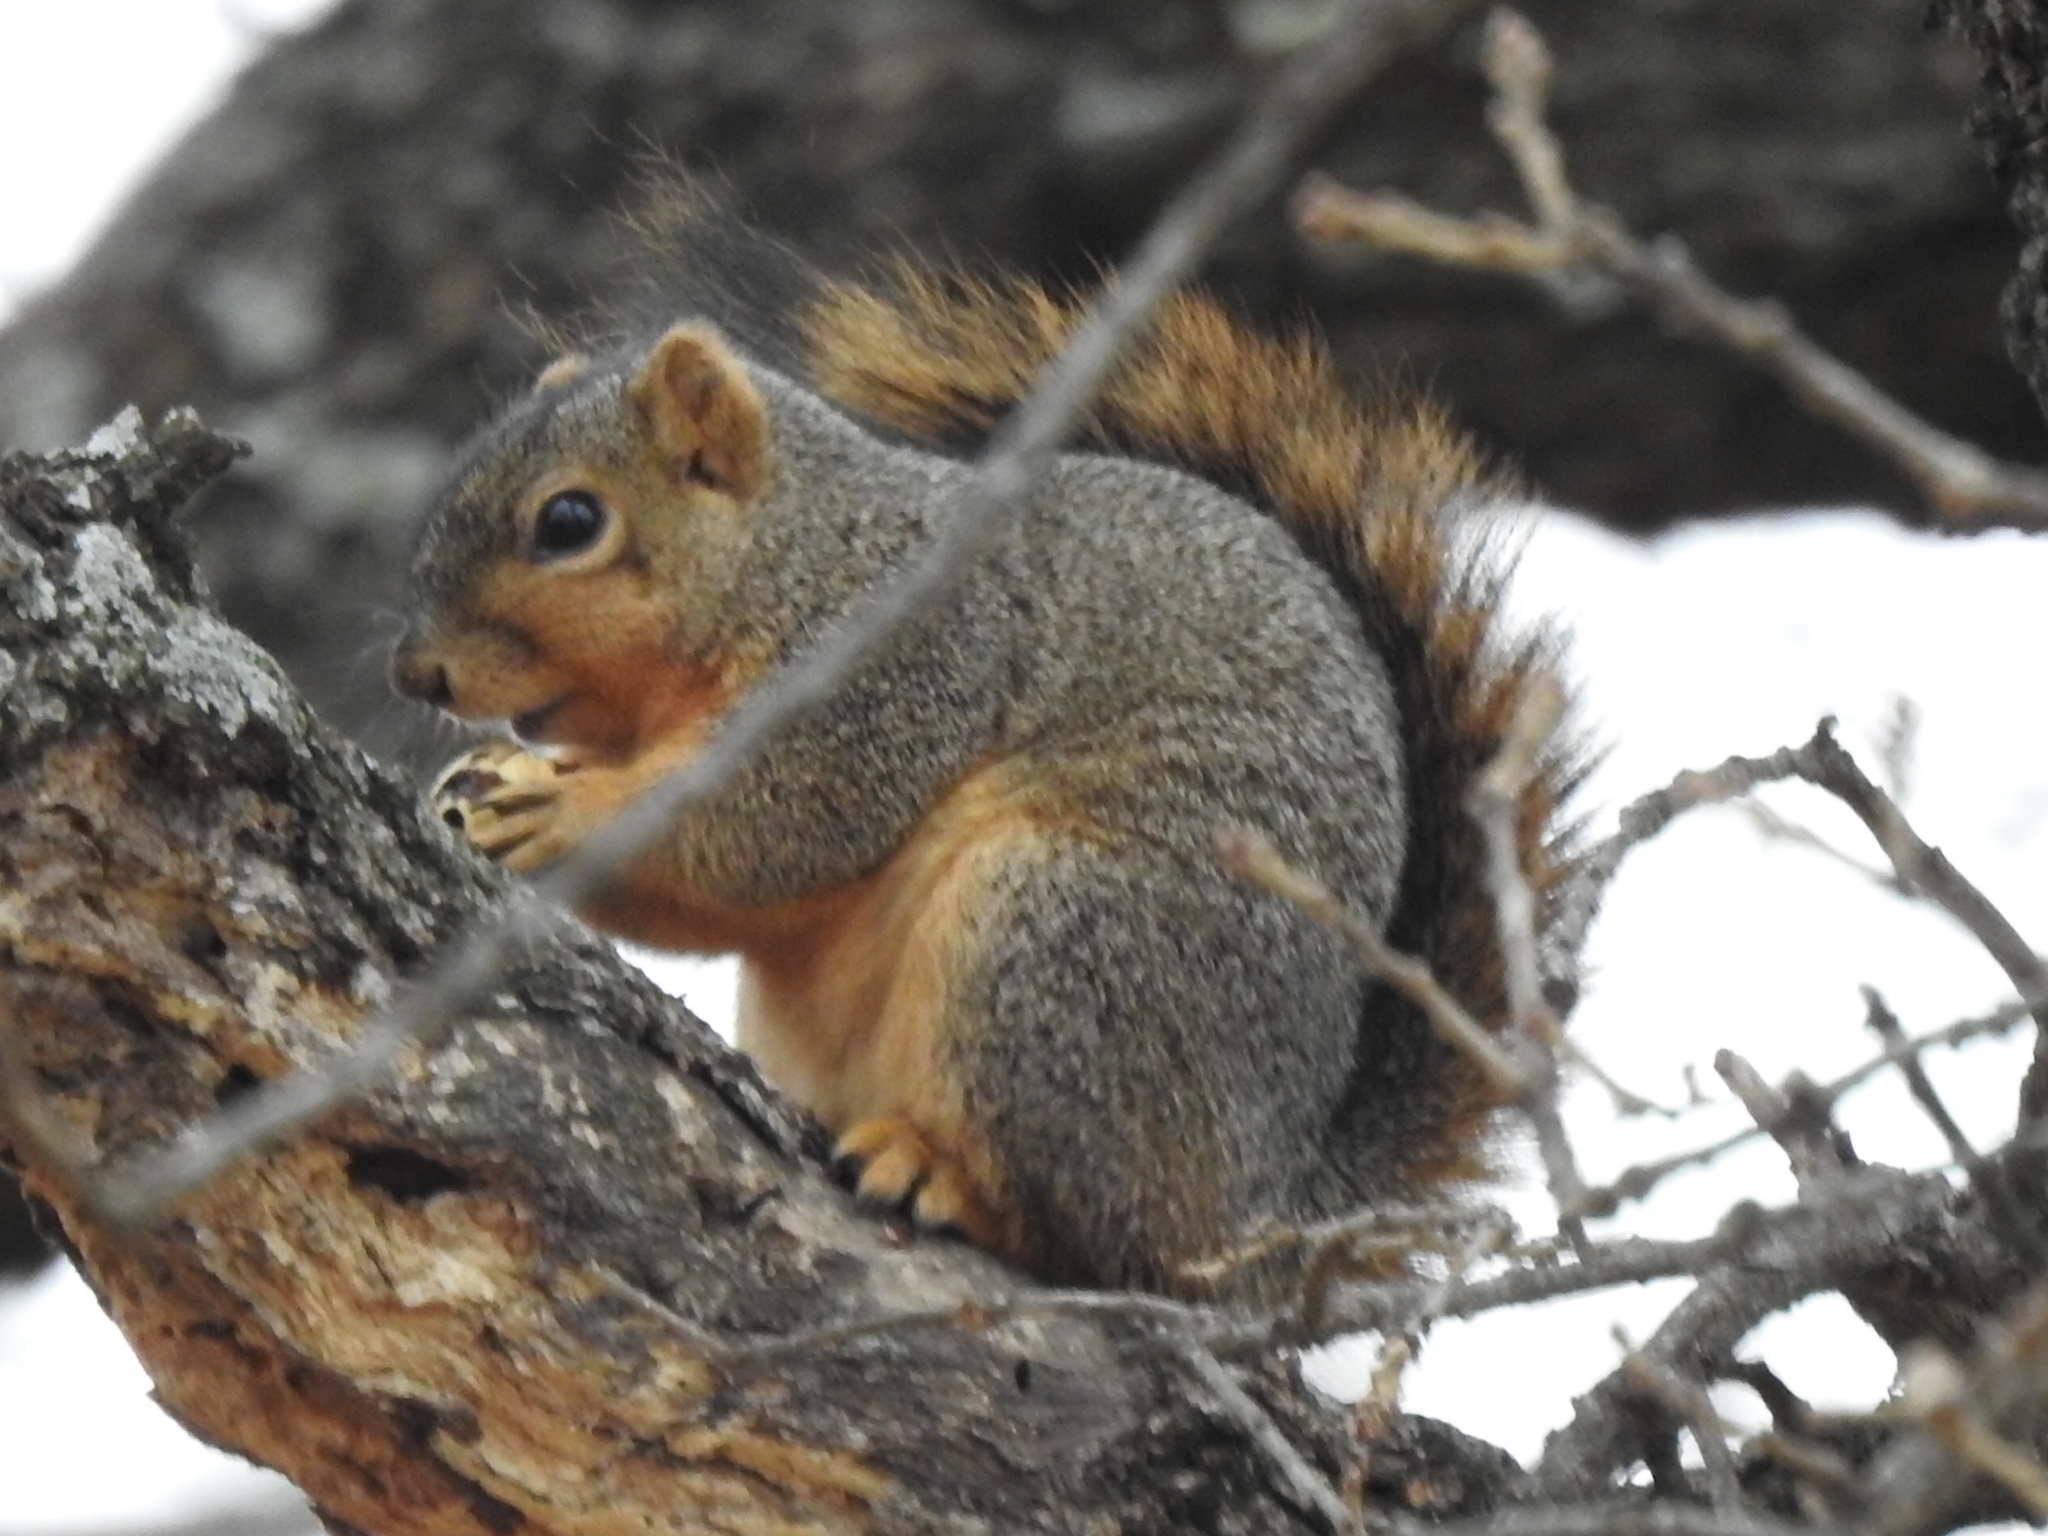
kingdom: Animalia
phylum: Chordata
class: Mammalia
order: Rodentia
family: Sciuridae
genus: Sciurus
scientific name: Sciurus niger
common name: Fox squirrel
